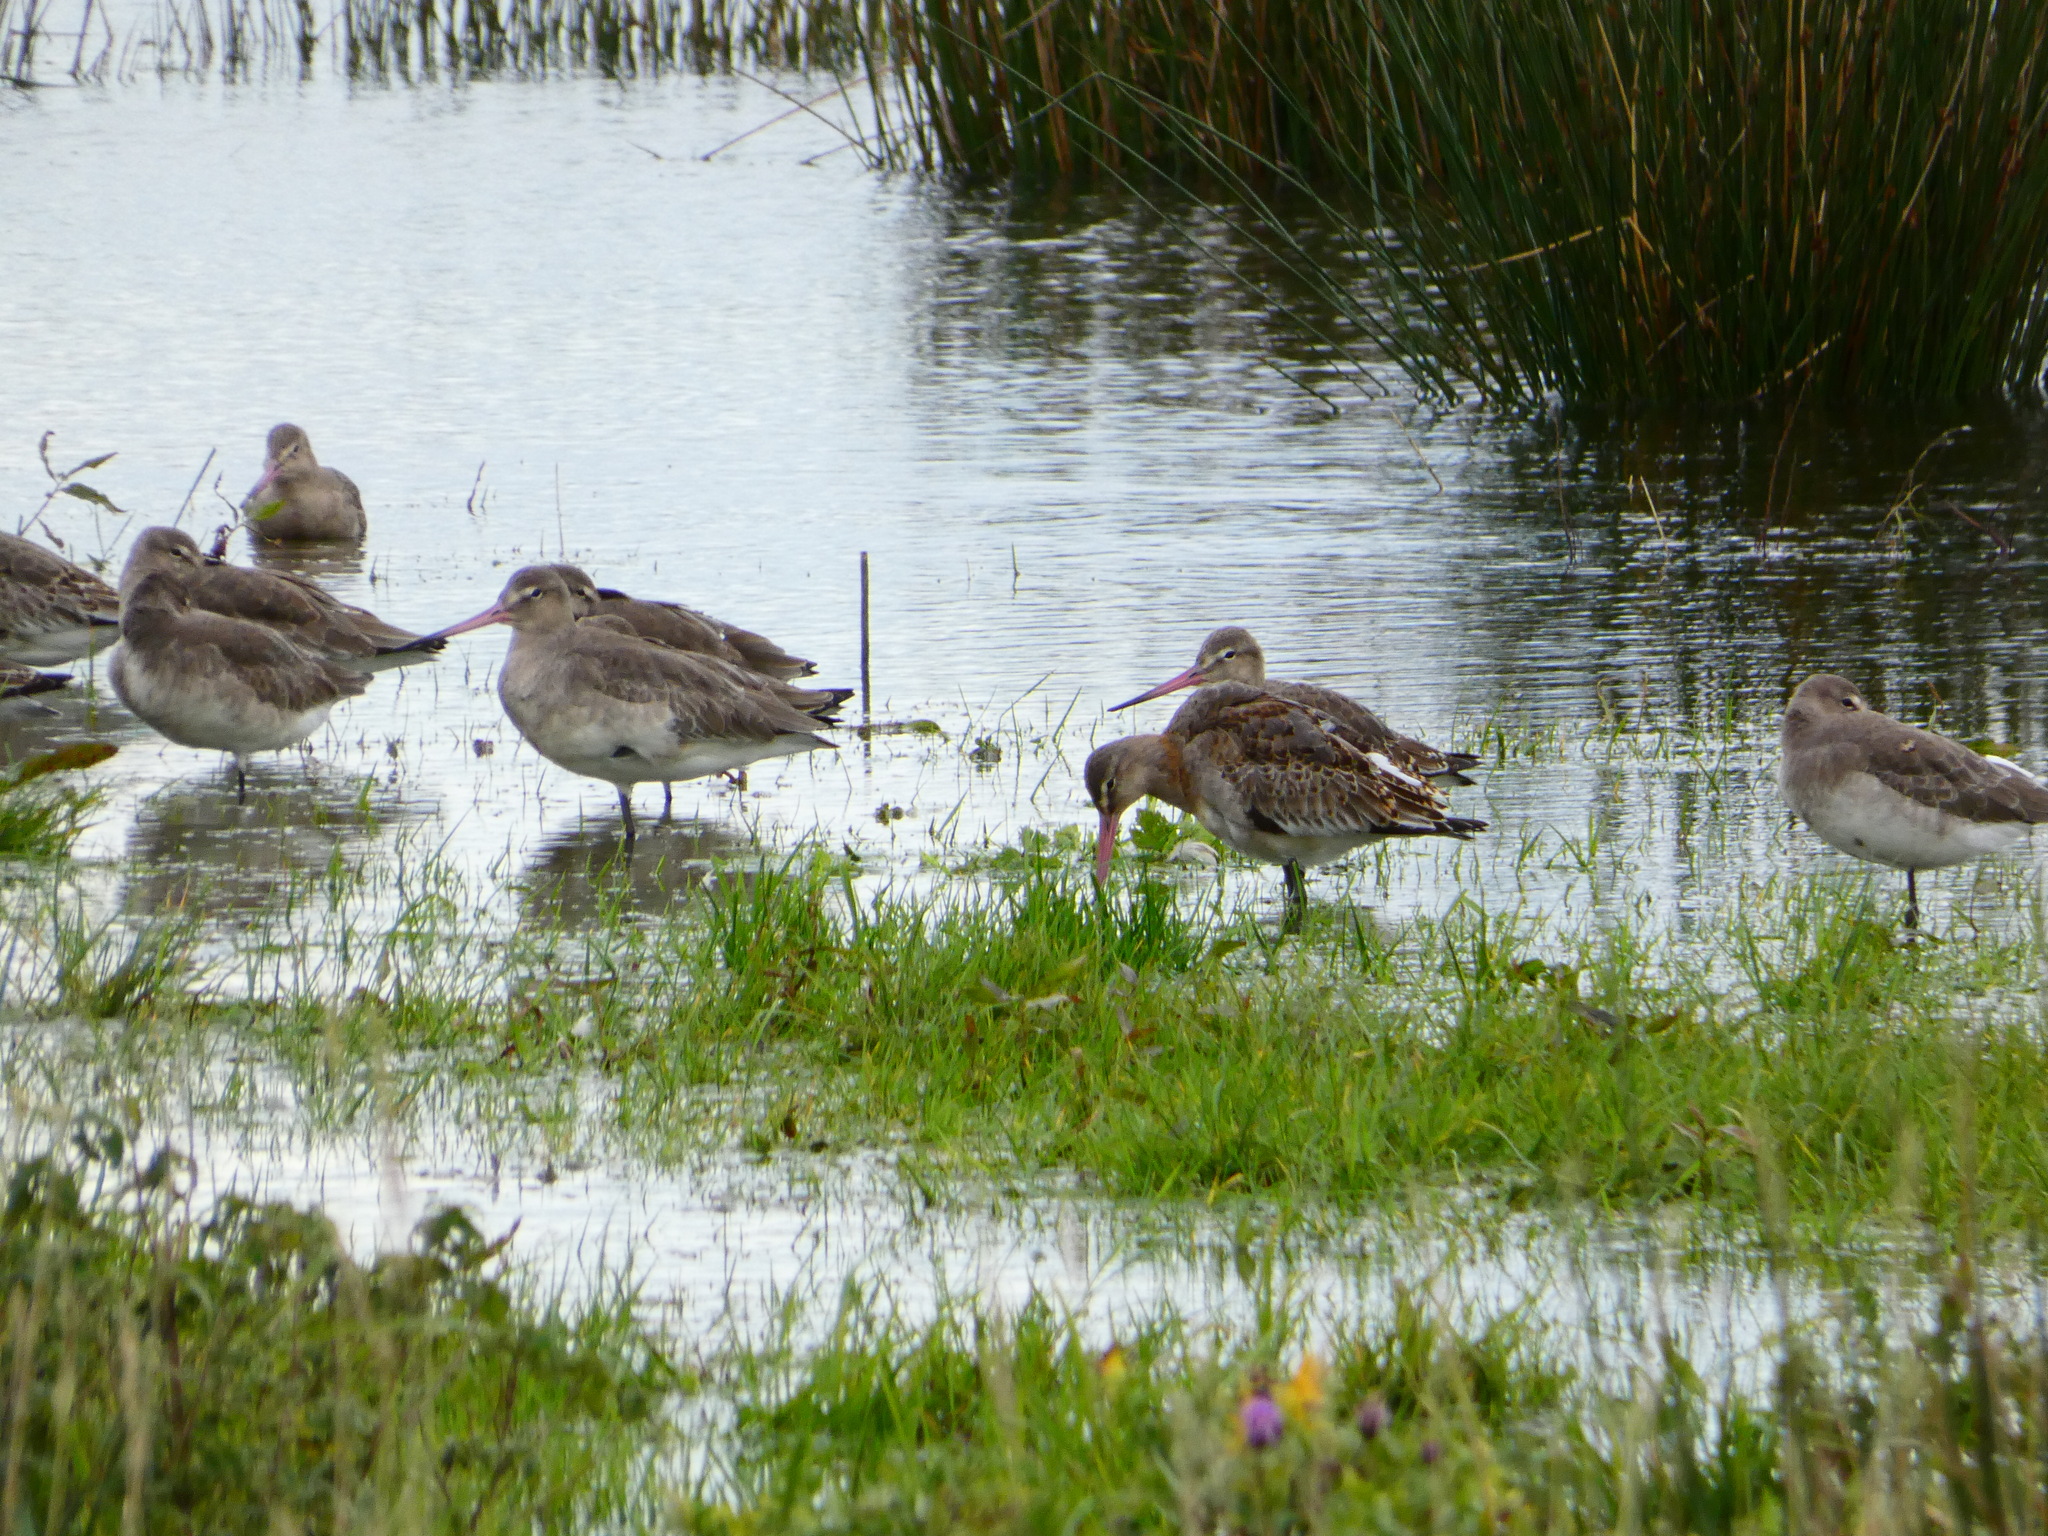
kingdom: Animalia
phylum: Chordata
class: Aves
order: Charadriiformes
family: Scolopacidae
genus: Limosa
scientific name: Limosa limosa
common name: Black-tailed godwit
